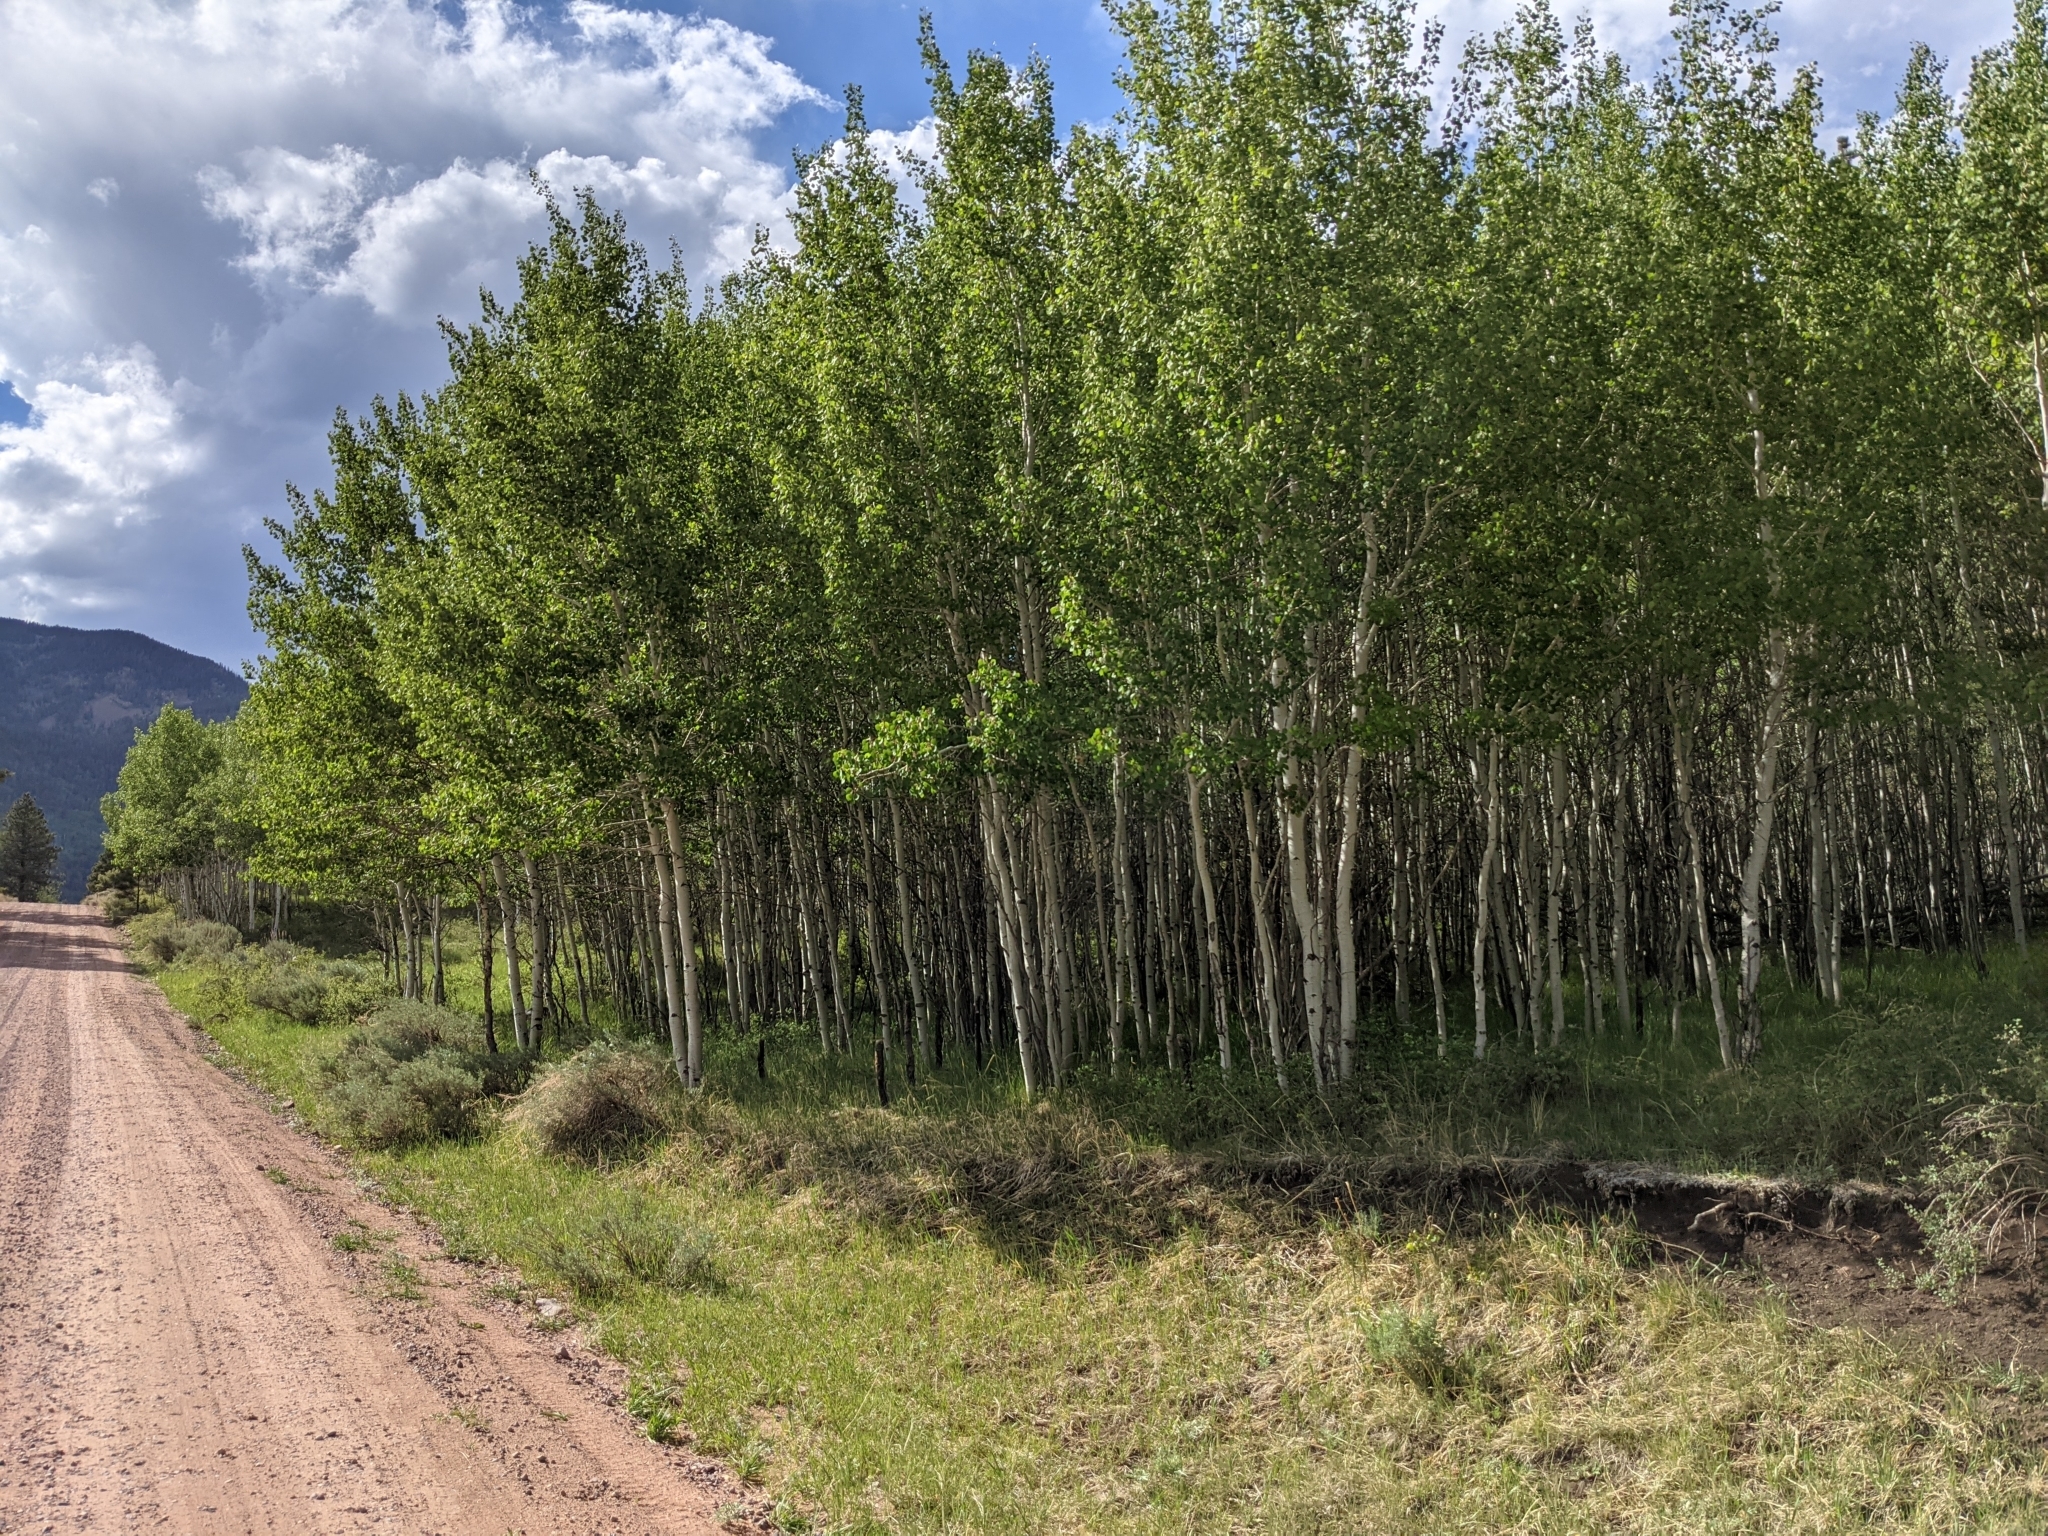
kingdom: Plantae
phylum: Tracheophyta
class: Magnoliopsida
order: Malpighiales
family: Salicaceae
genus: Populus
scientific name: Populus tremuloides
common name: Quaking aspen
